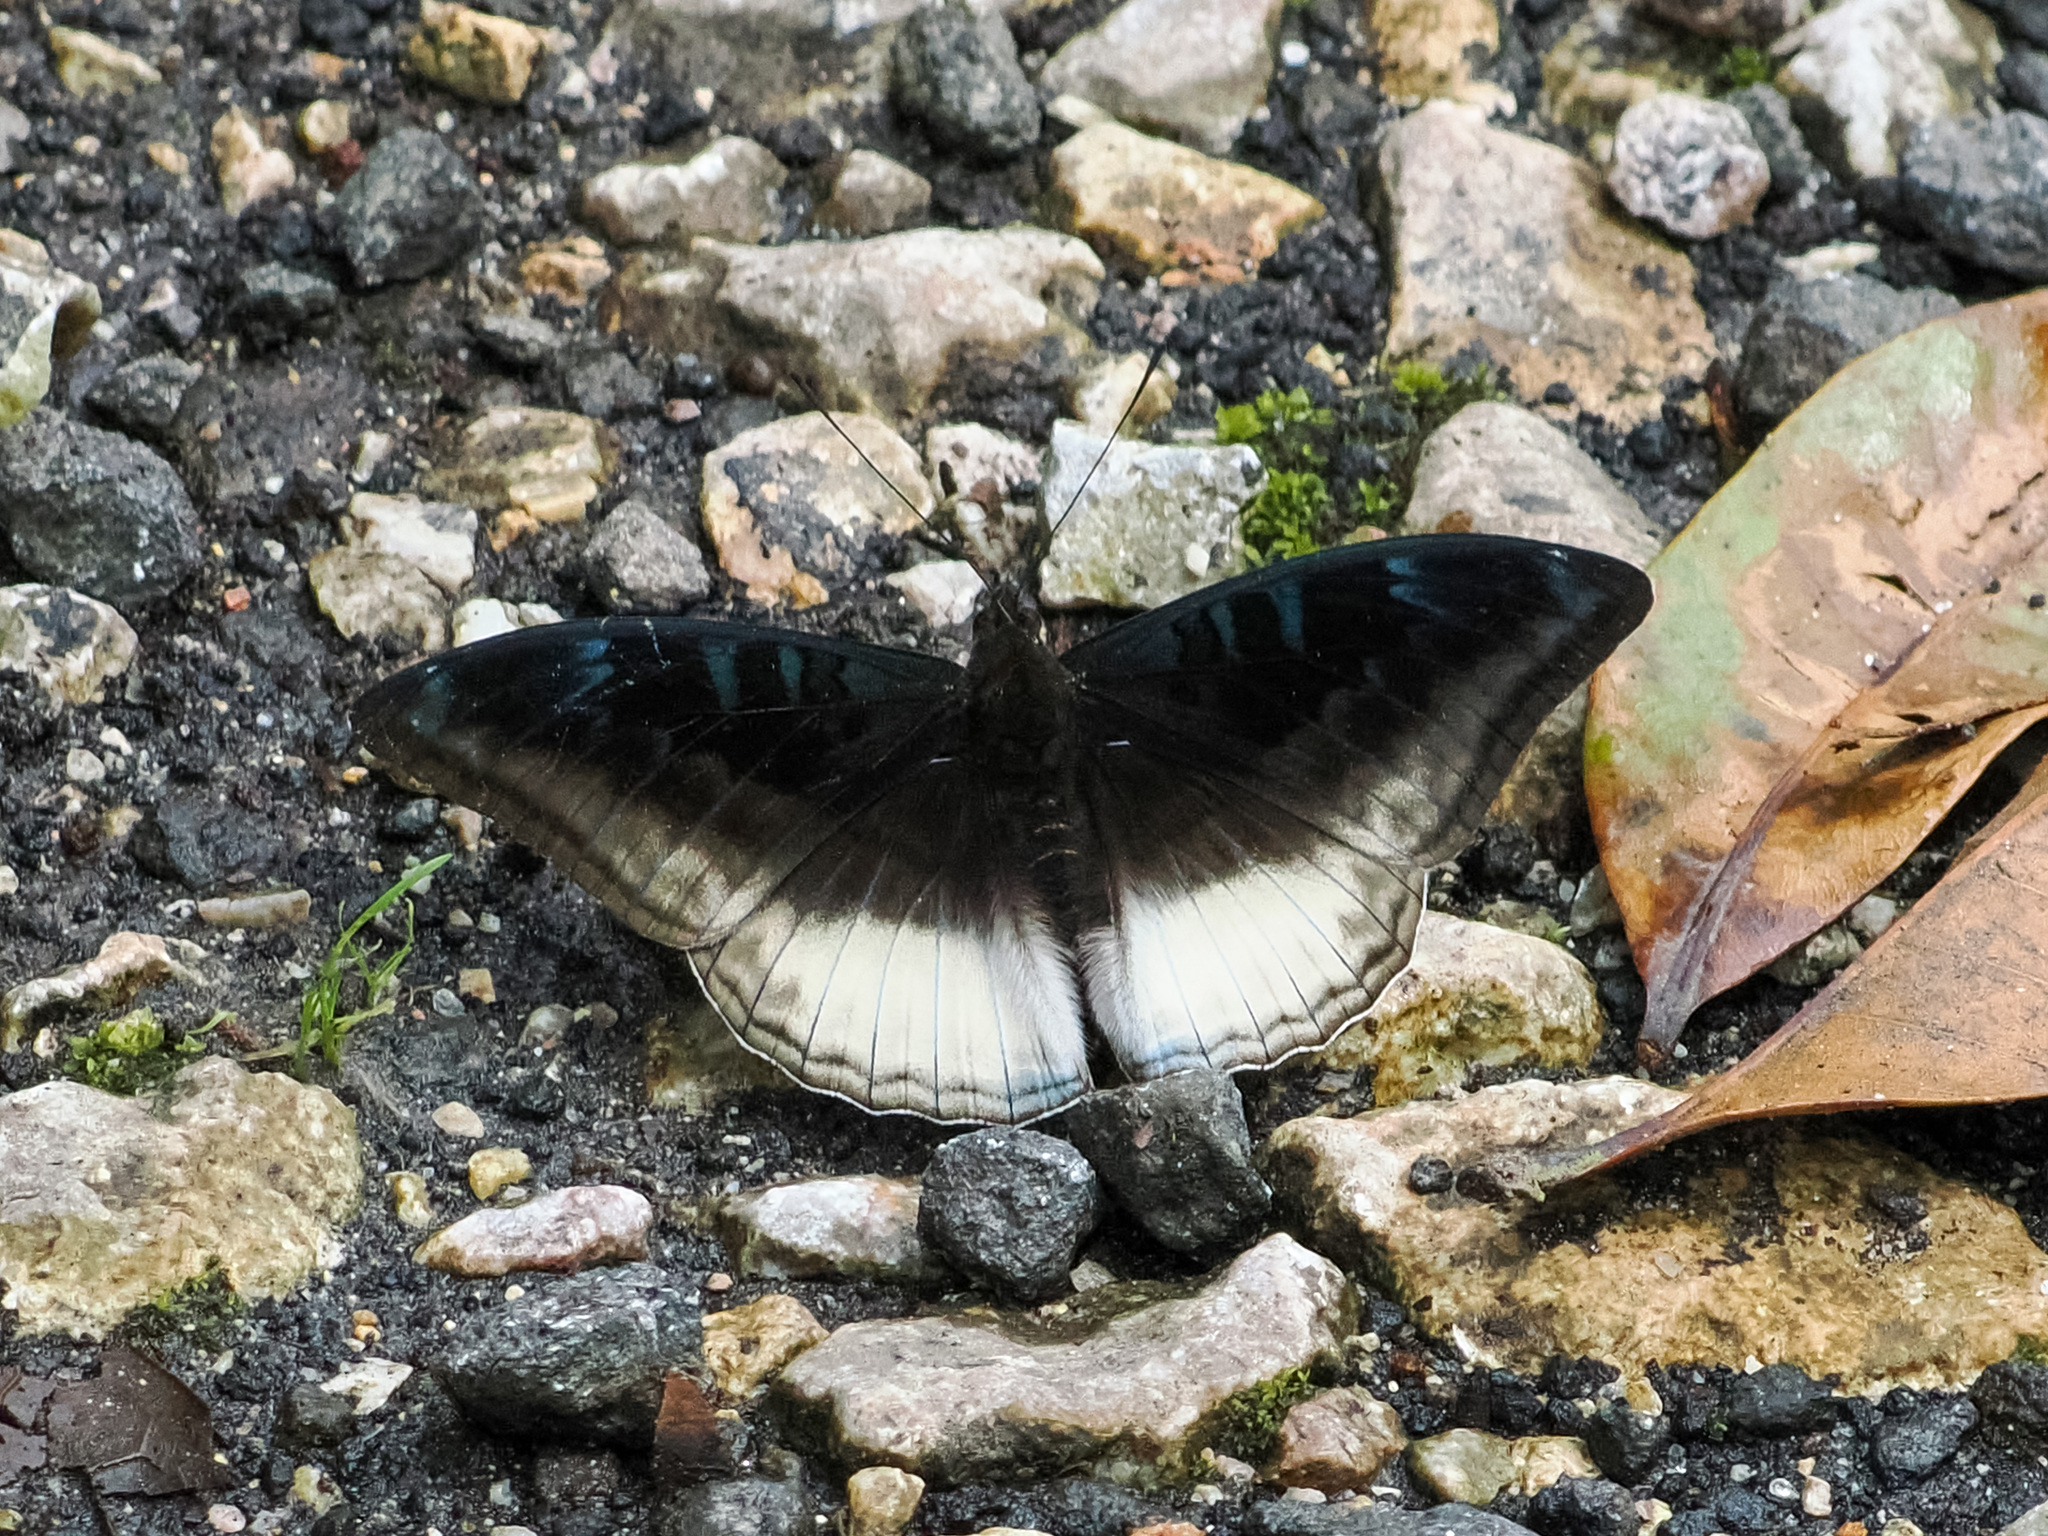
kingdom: Animalia
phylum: Arthropoda
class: Insecta
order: Lepidoptera
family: Nymphalidae
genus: Limenitis
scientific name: Limenitis Auzakia danava
